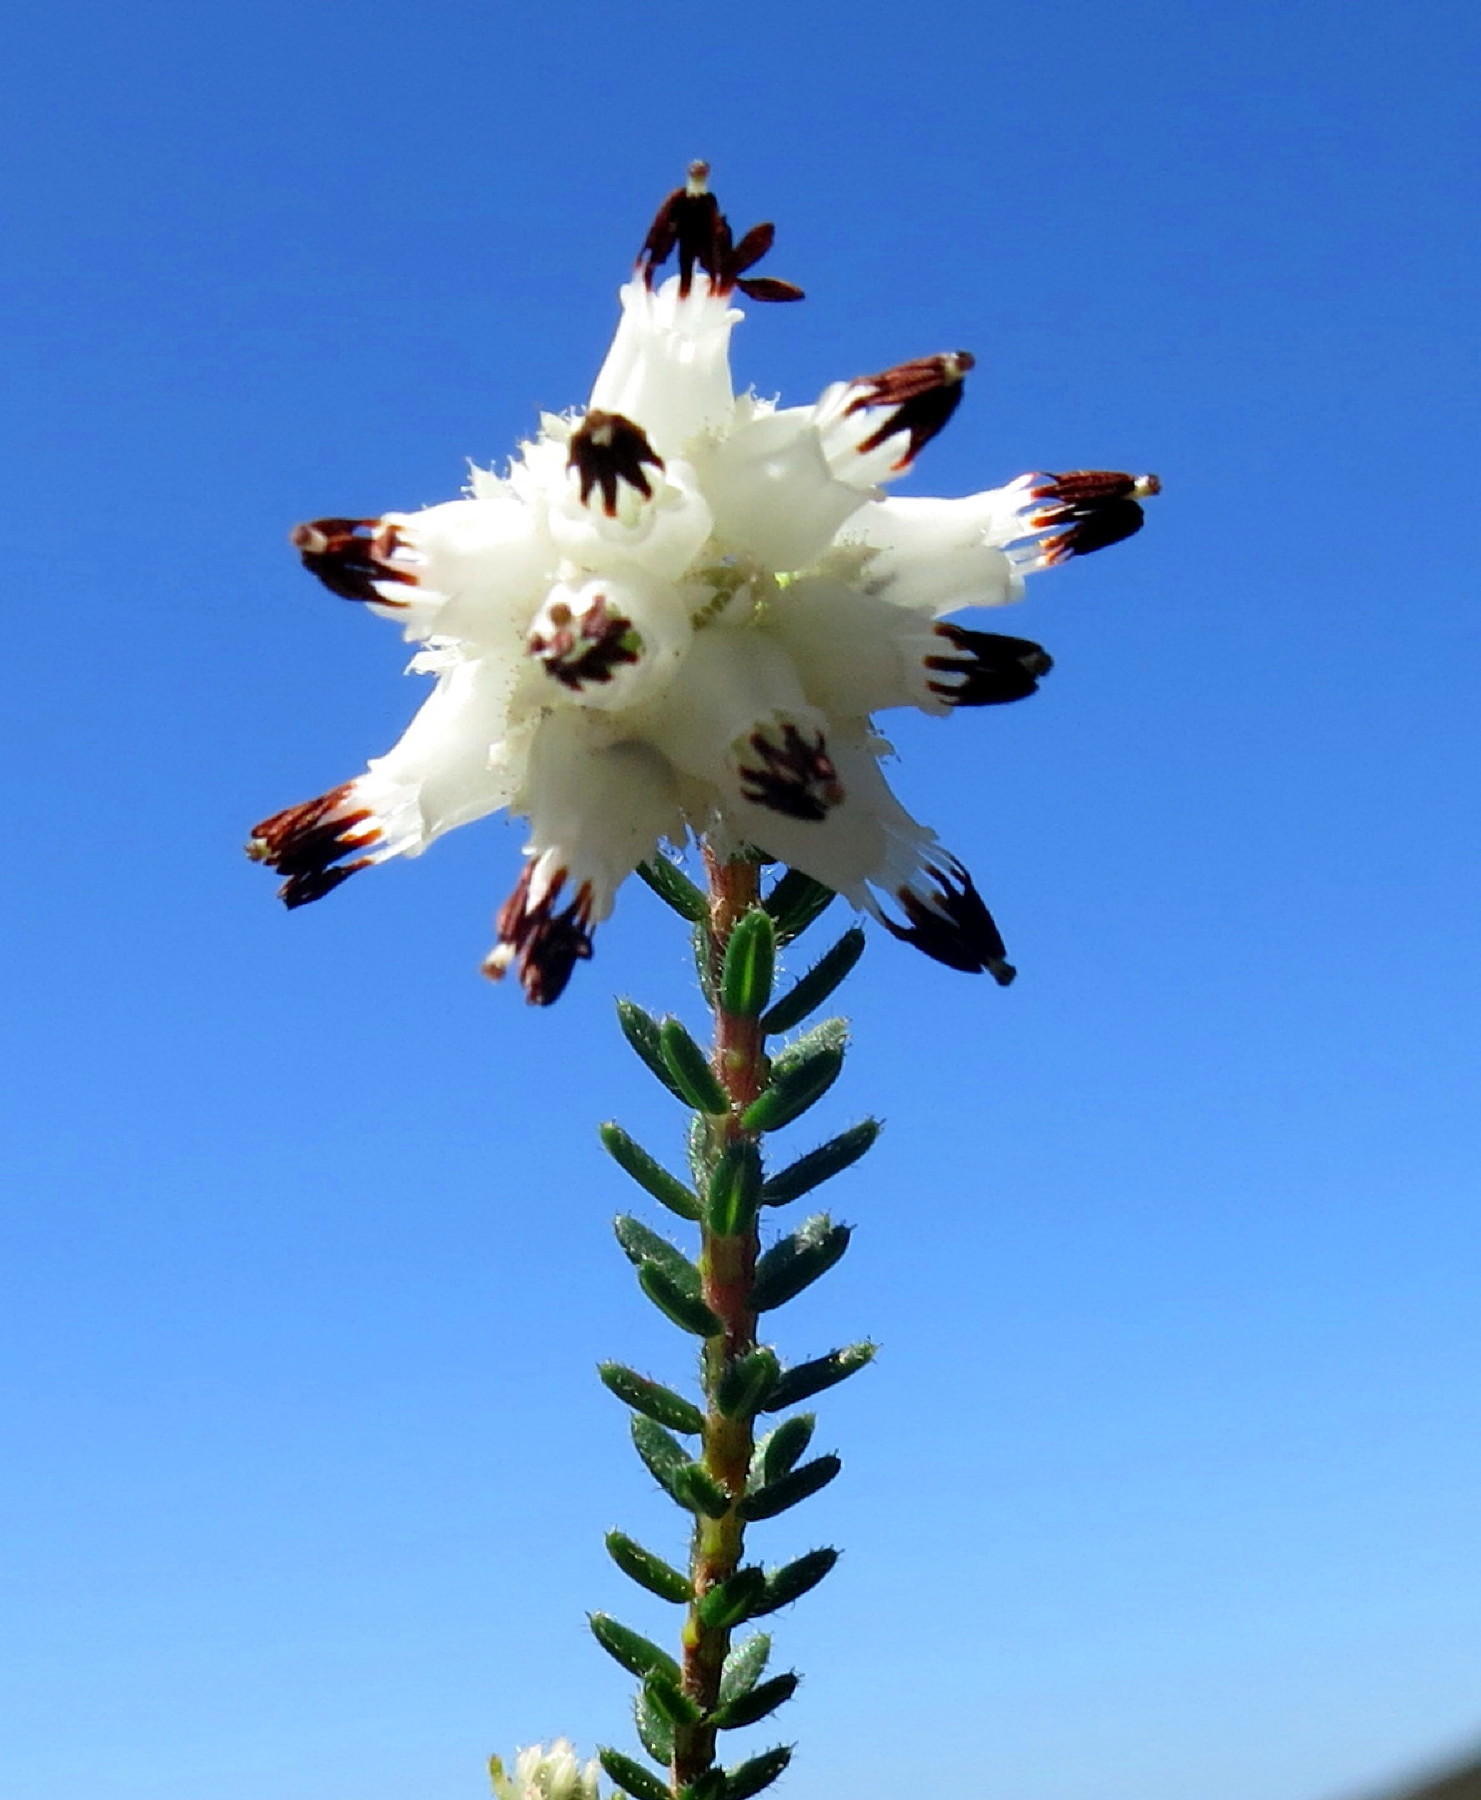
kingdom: Plantae
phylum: Tracheophyta
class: Magnoliopsida
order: Ericales
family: Ericaceae
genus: Erica
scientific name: Erica stylaris
